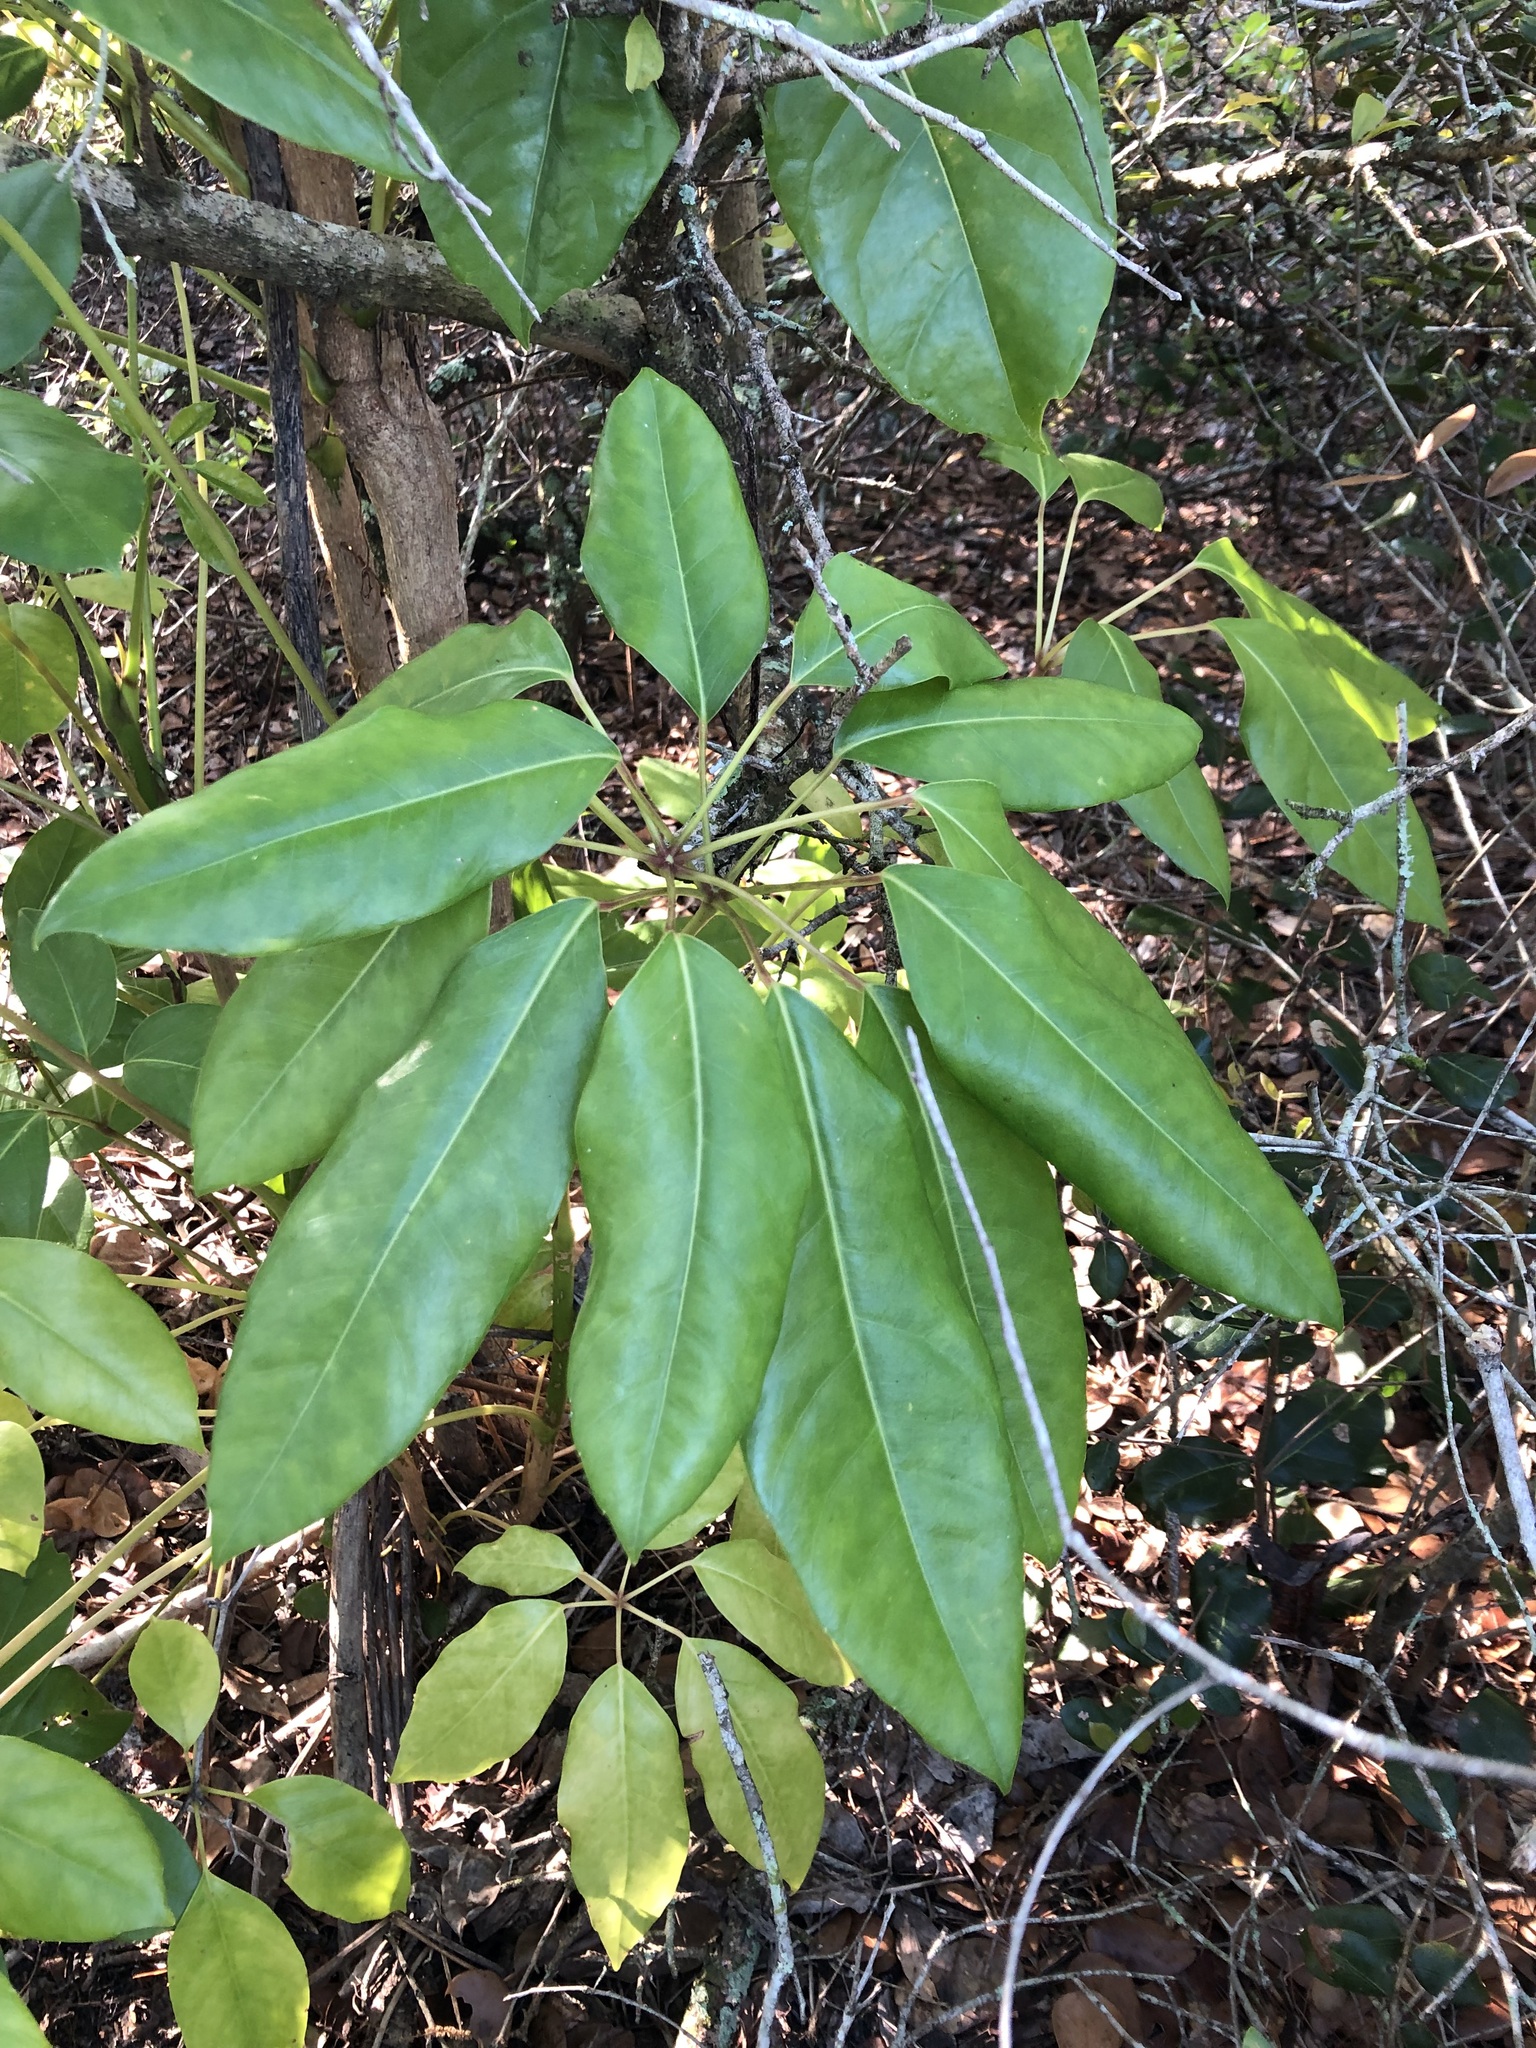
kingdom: Plantae
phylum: Tracheophyta
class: Magnoliopsida
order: Apiales
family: Araliaceae
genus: Heptapleurum
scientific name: Heptapleurum actinophyllum
